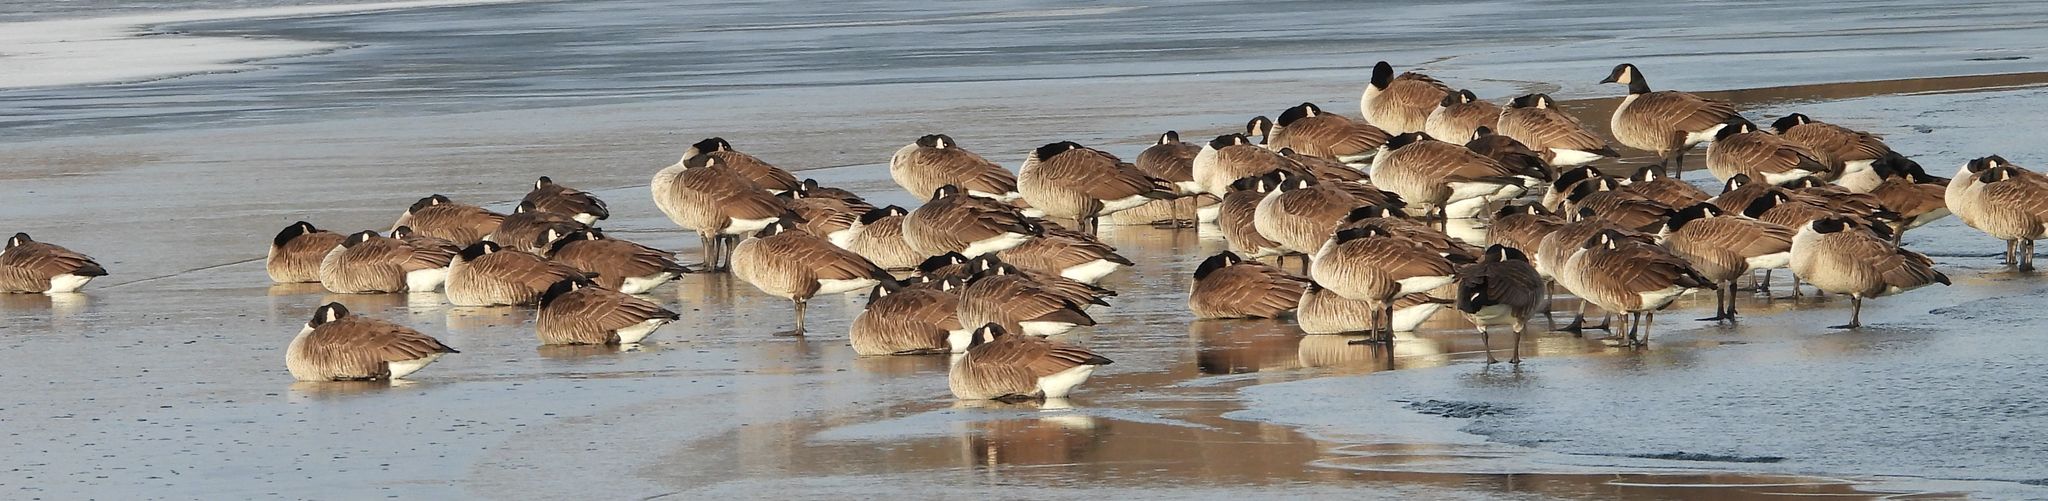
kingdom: Animalia
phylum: Chordata
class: Aves
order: Anseriformes
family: Anatidae
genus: Branta
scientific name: Branta canadensis
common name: Canada goose
